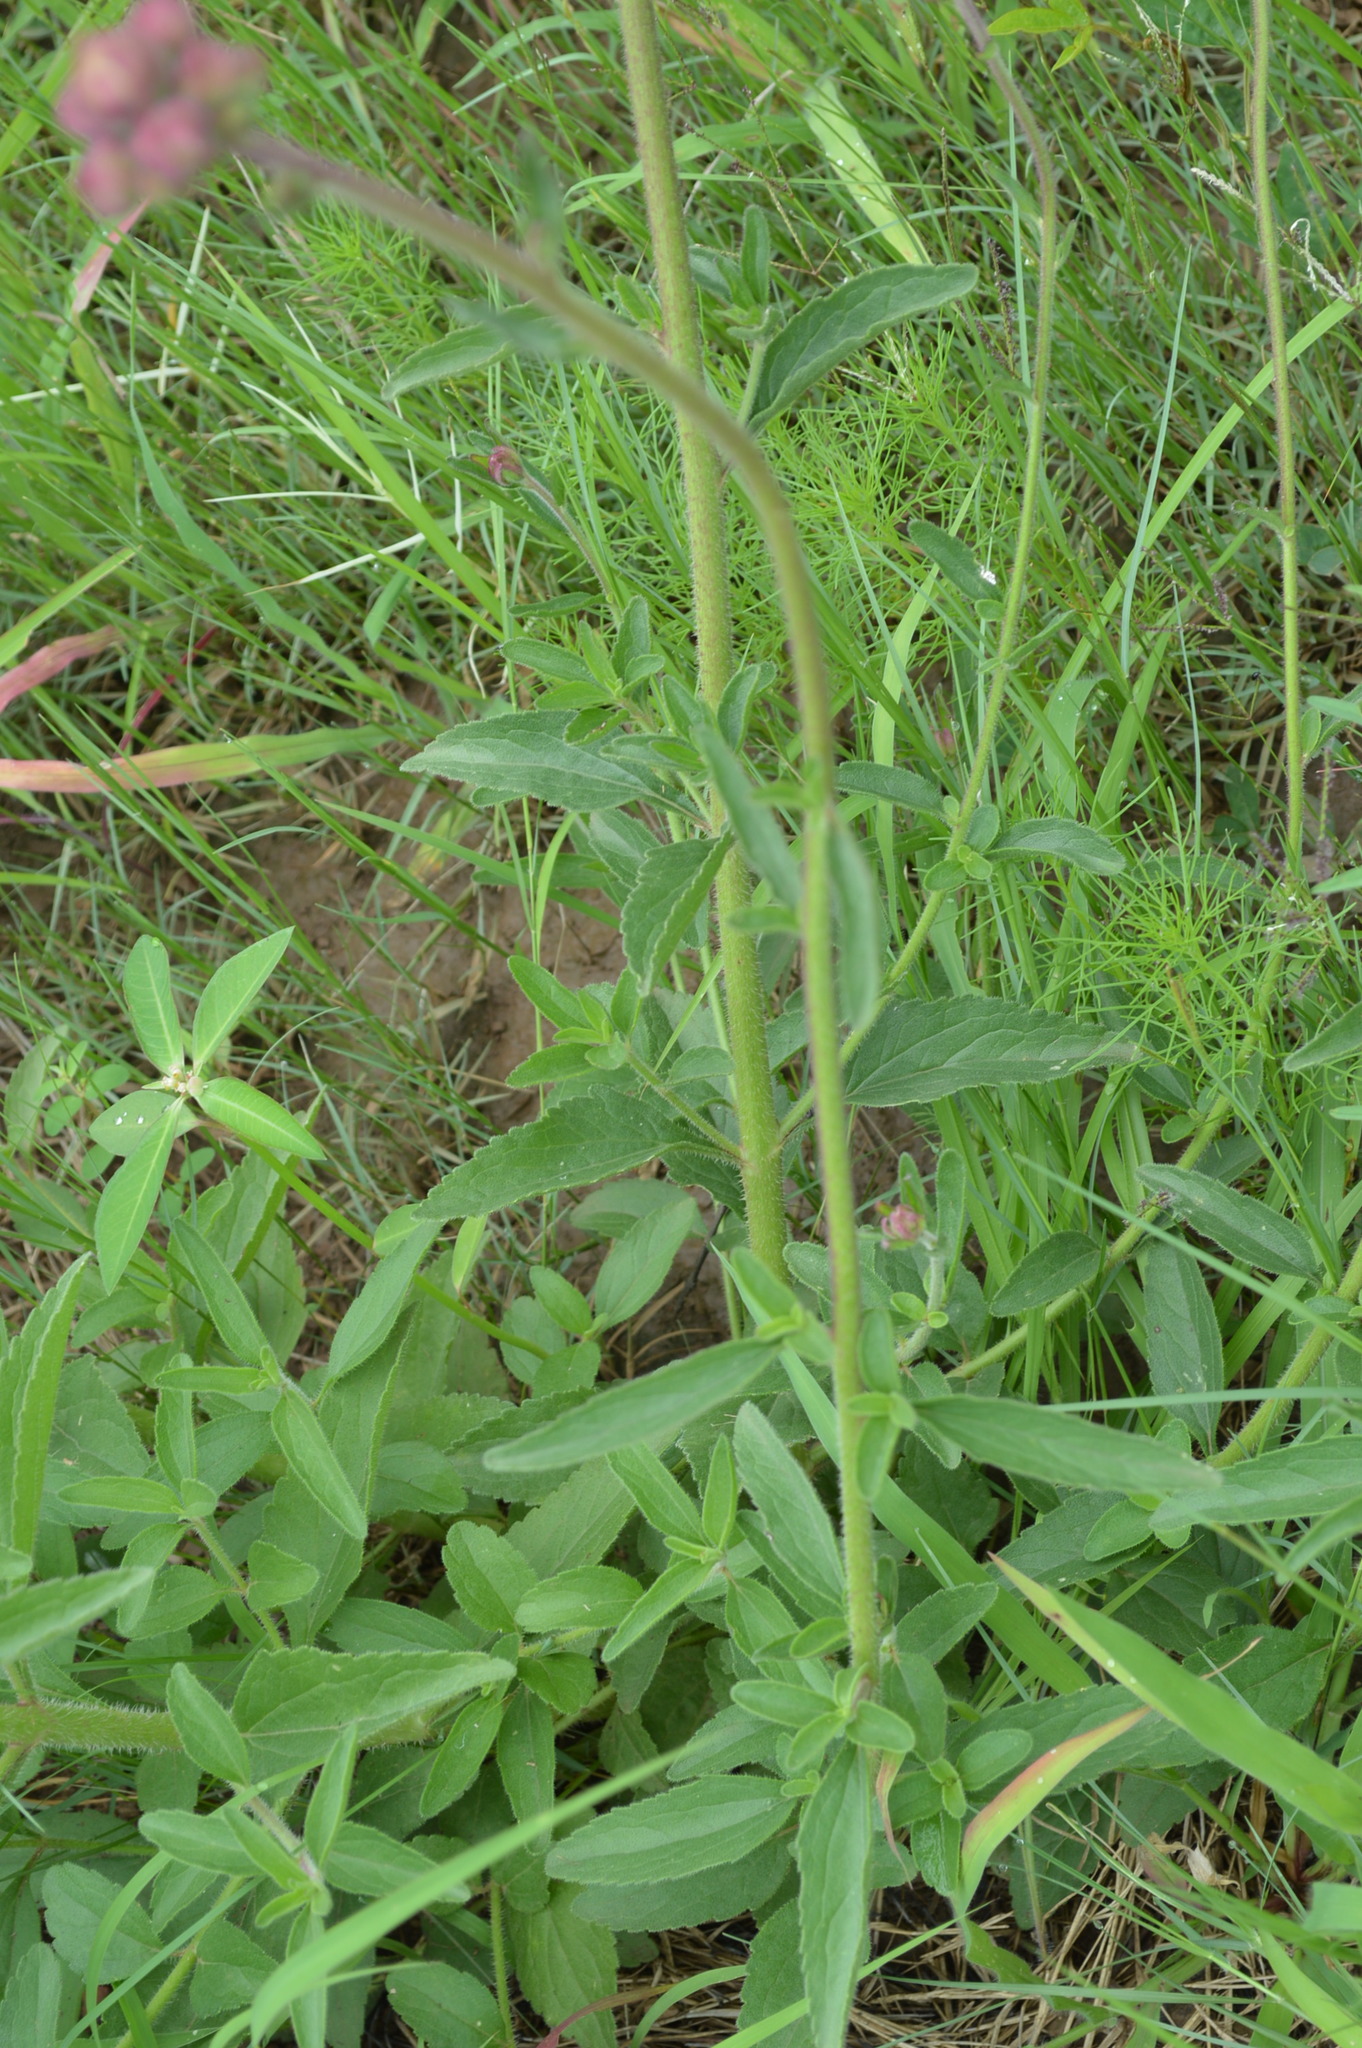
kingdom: Plantae
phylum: Tracheophyta
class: Magnoliopsida
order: Asterales
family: Asteraceae
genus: Campuloclinium
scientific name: Campuloclinium macrocephalum
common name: Pompomweed
